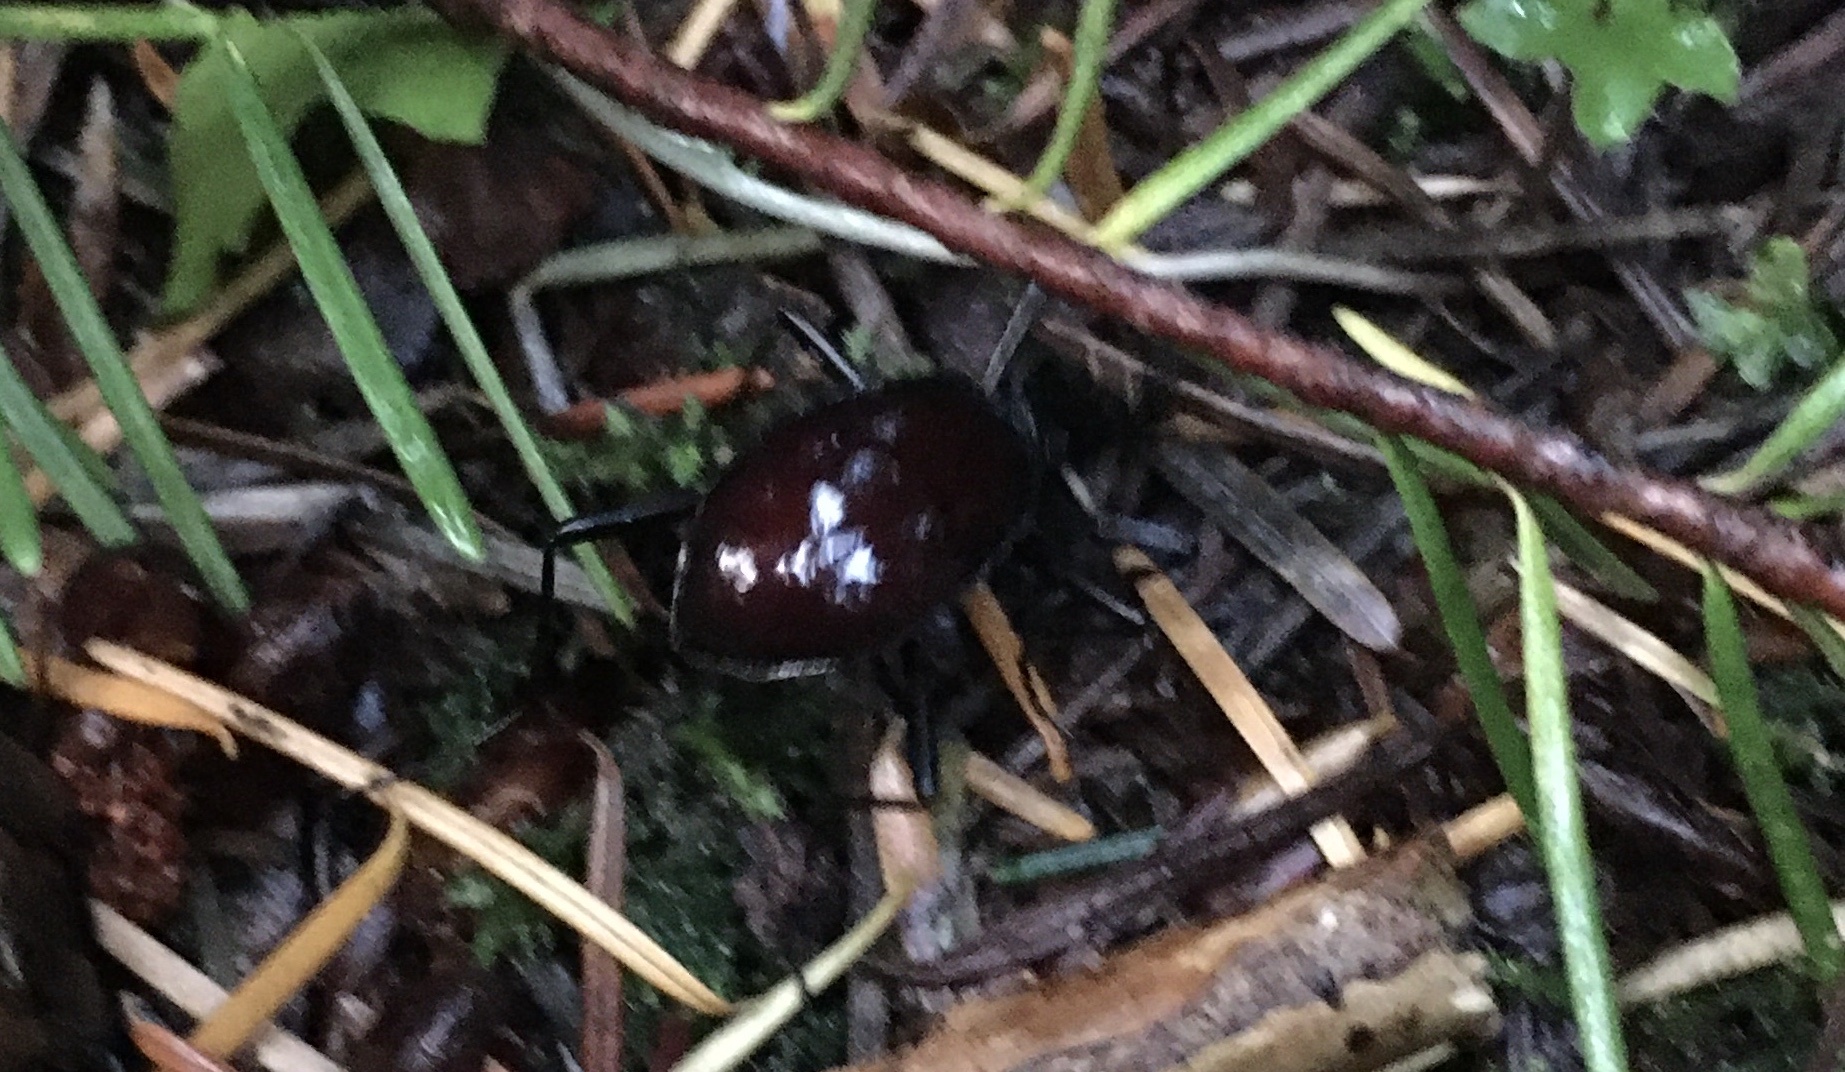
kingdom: Animalia
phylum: Arthropoda
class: Insecta
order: Coleoptera
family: Carabidae
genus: Scaphinotus
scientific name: Scaphinotus angusticollis
